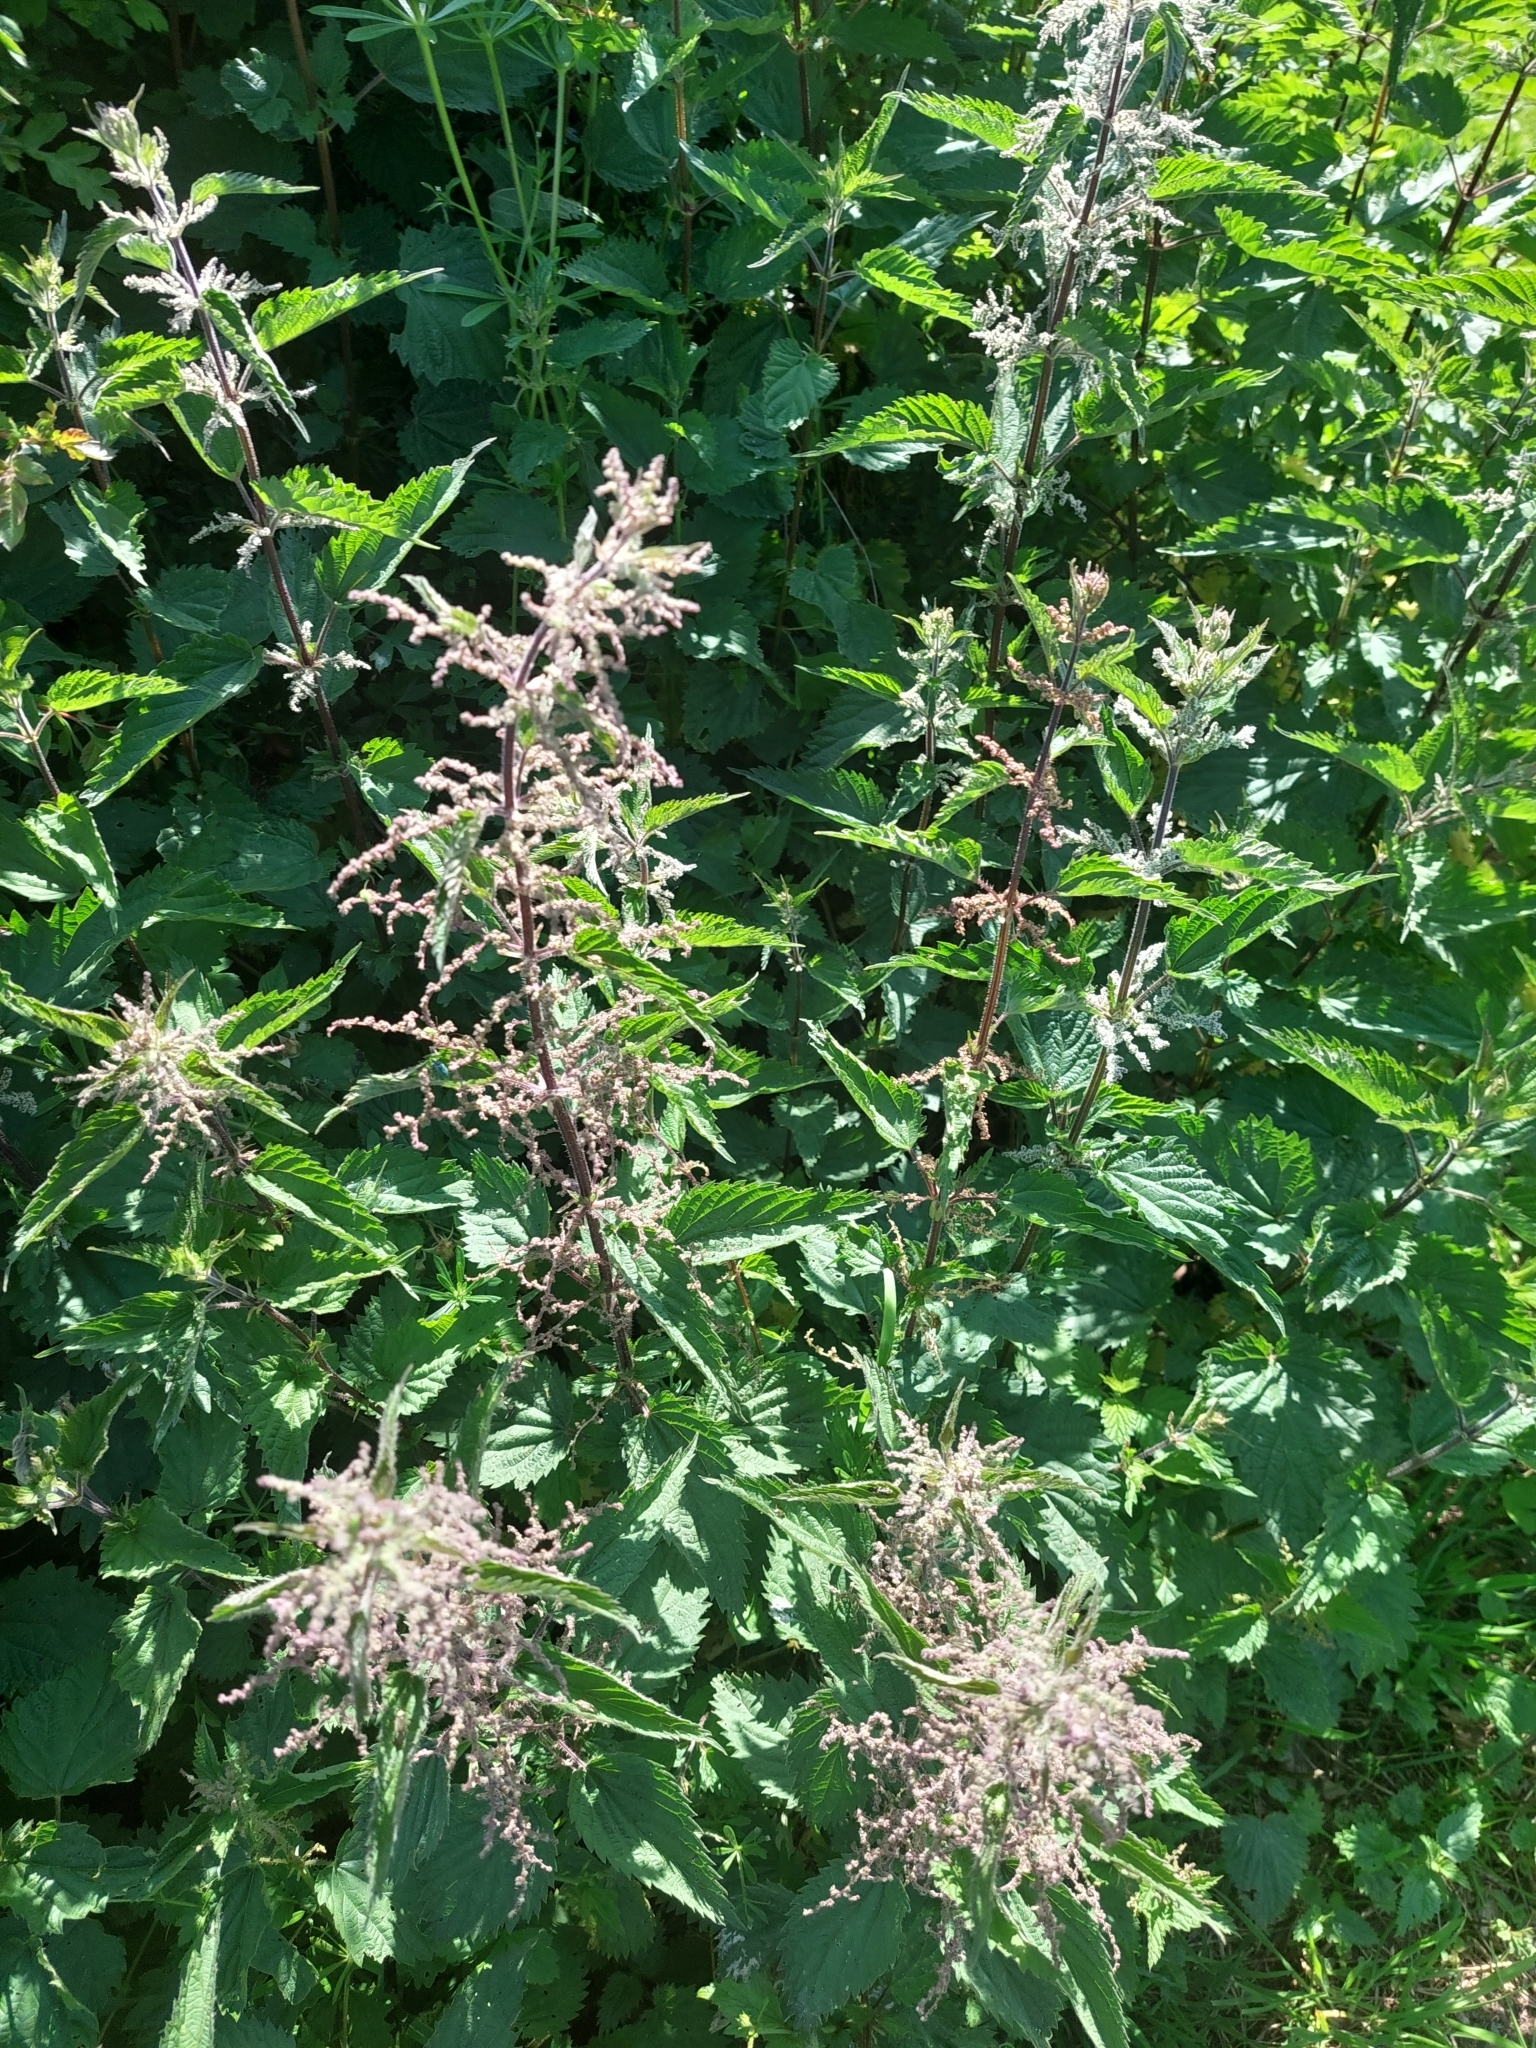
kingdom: Plantae
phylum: Tracheophyta
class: Magnoliopsida
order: Rosales
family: Urticaceae
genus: Urtica
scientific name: Urtica dioica
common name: Common nettle
